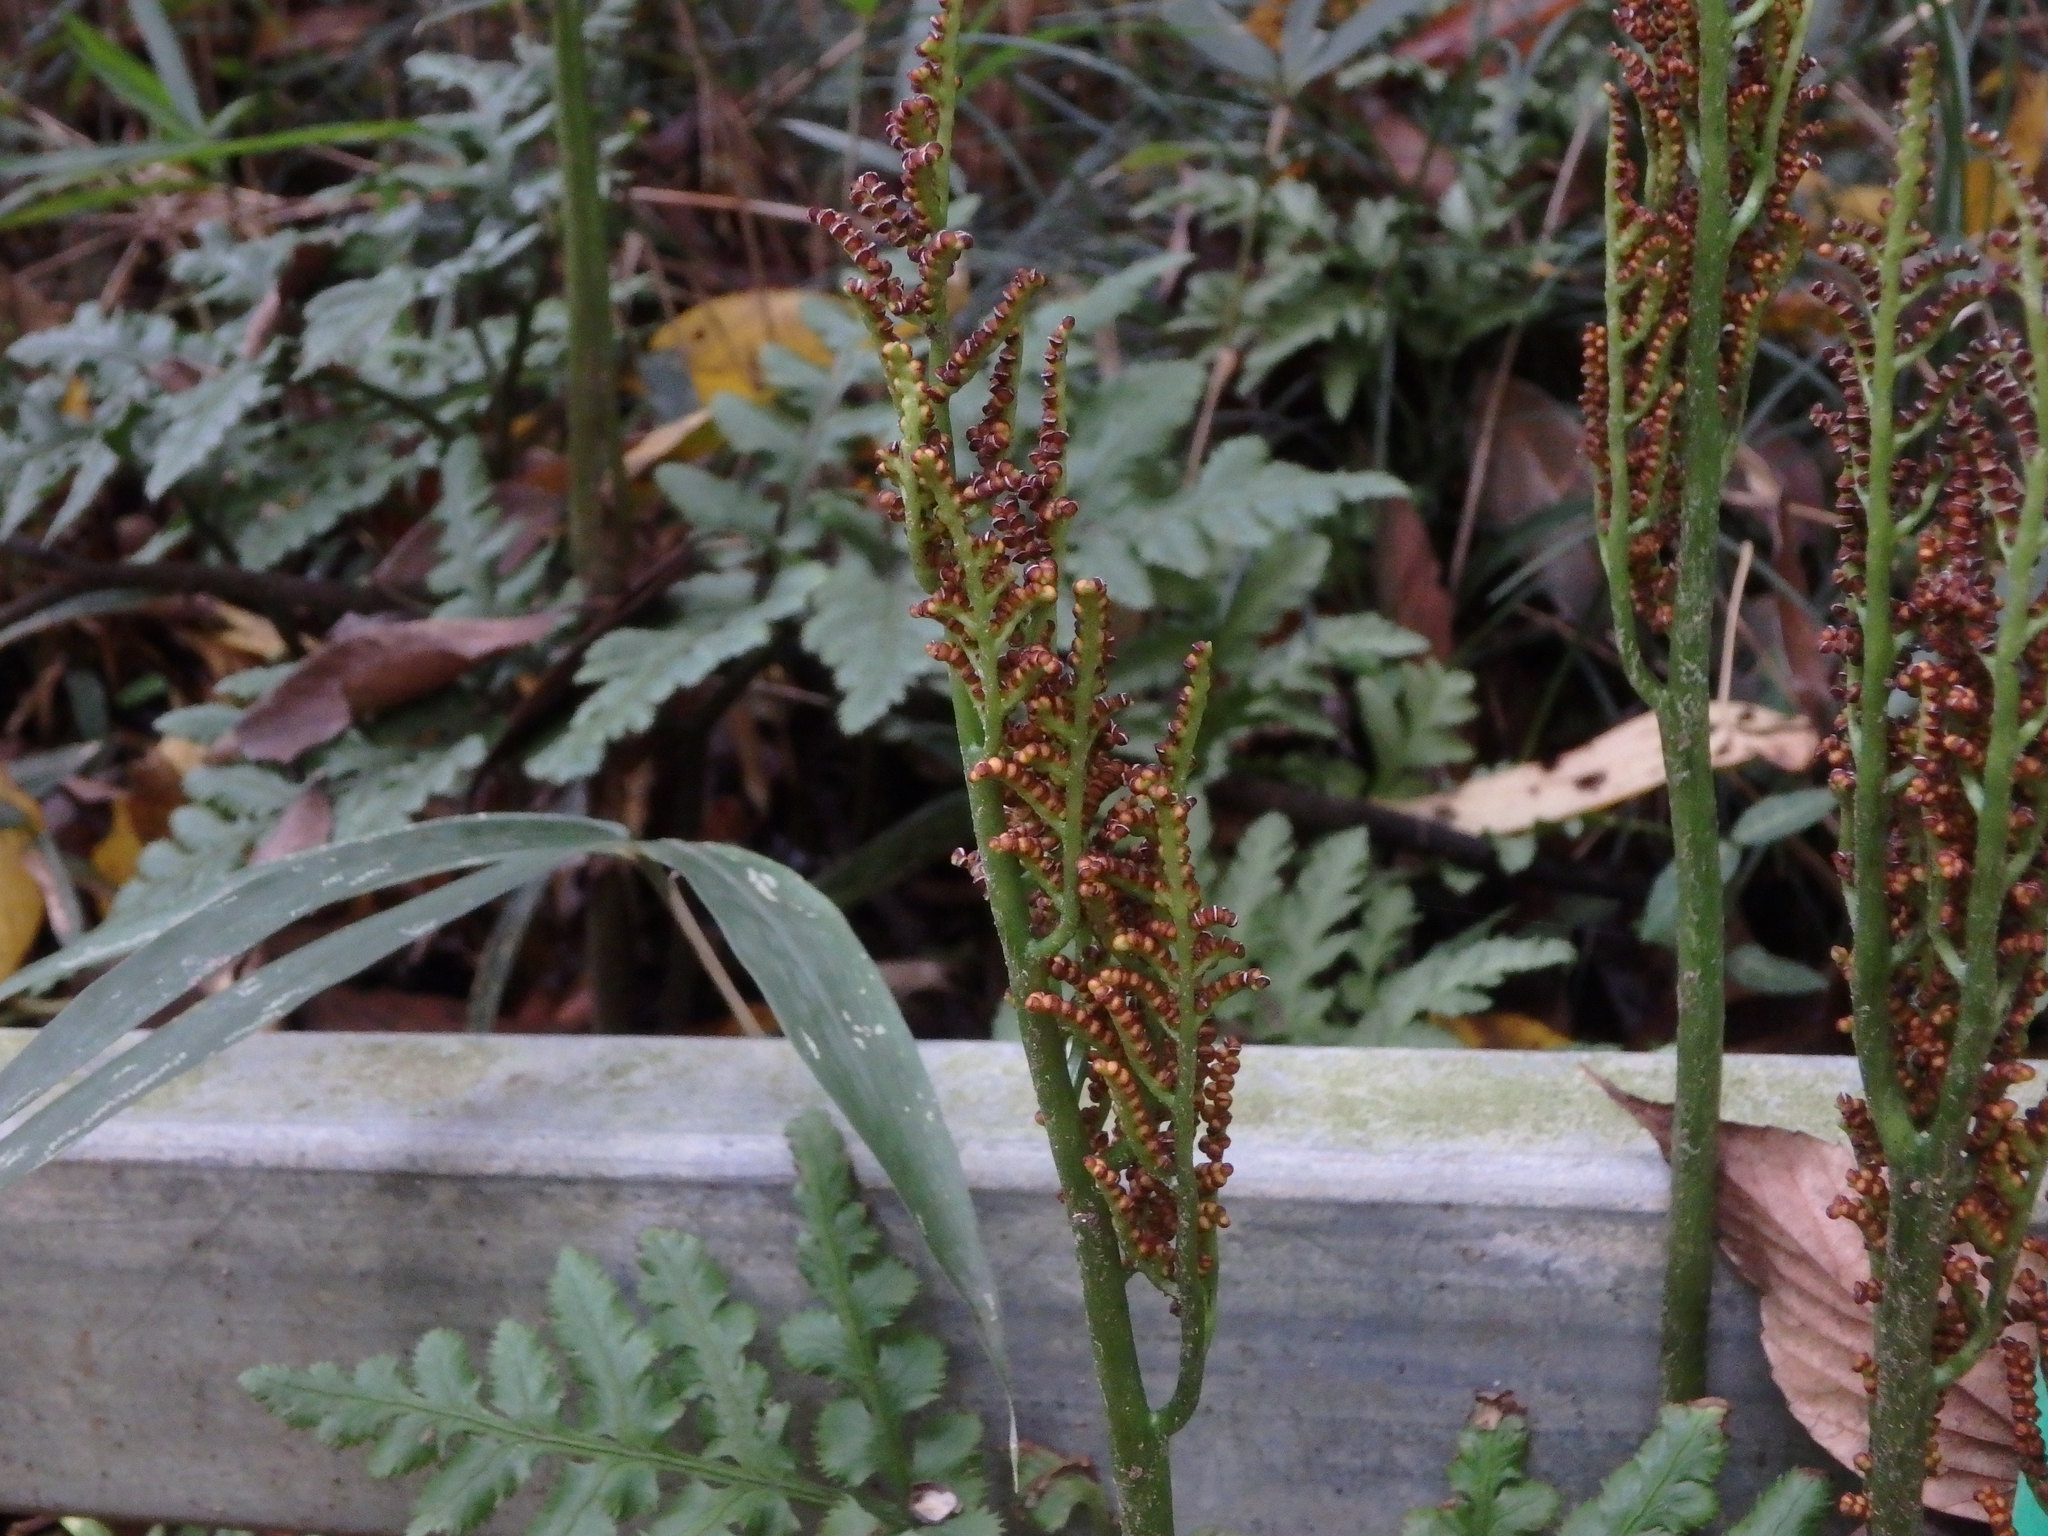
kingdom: Plantae
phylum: Tracheophyta
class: Polypodiopsida
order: Ophioglossales
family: Ophioglossaceae
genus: Sceptridium
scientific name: Sceptridium japonicum
